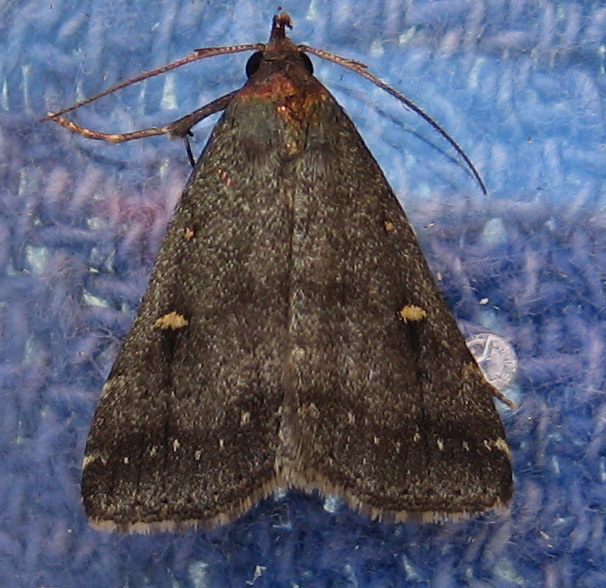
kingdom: Animalia
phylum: Arthropoda
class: Insecta
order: Lepidoptera
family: Erebidae
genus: Tetanolita
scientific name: Tetanolita mynesalis
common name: Smoky tetanolita moth
